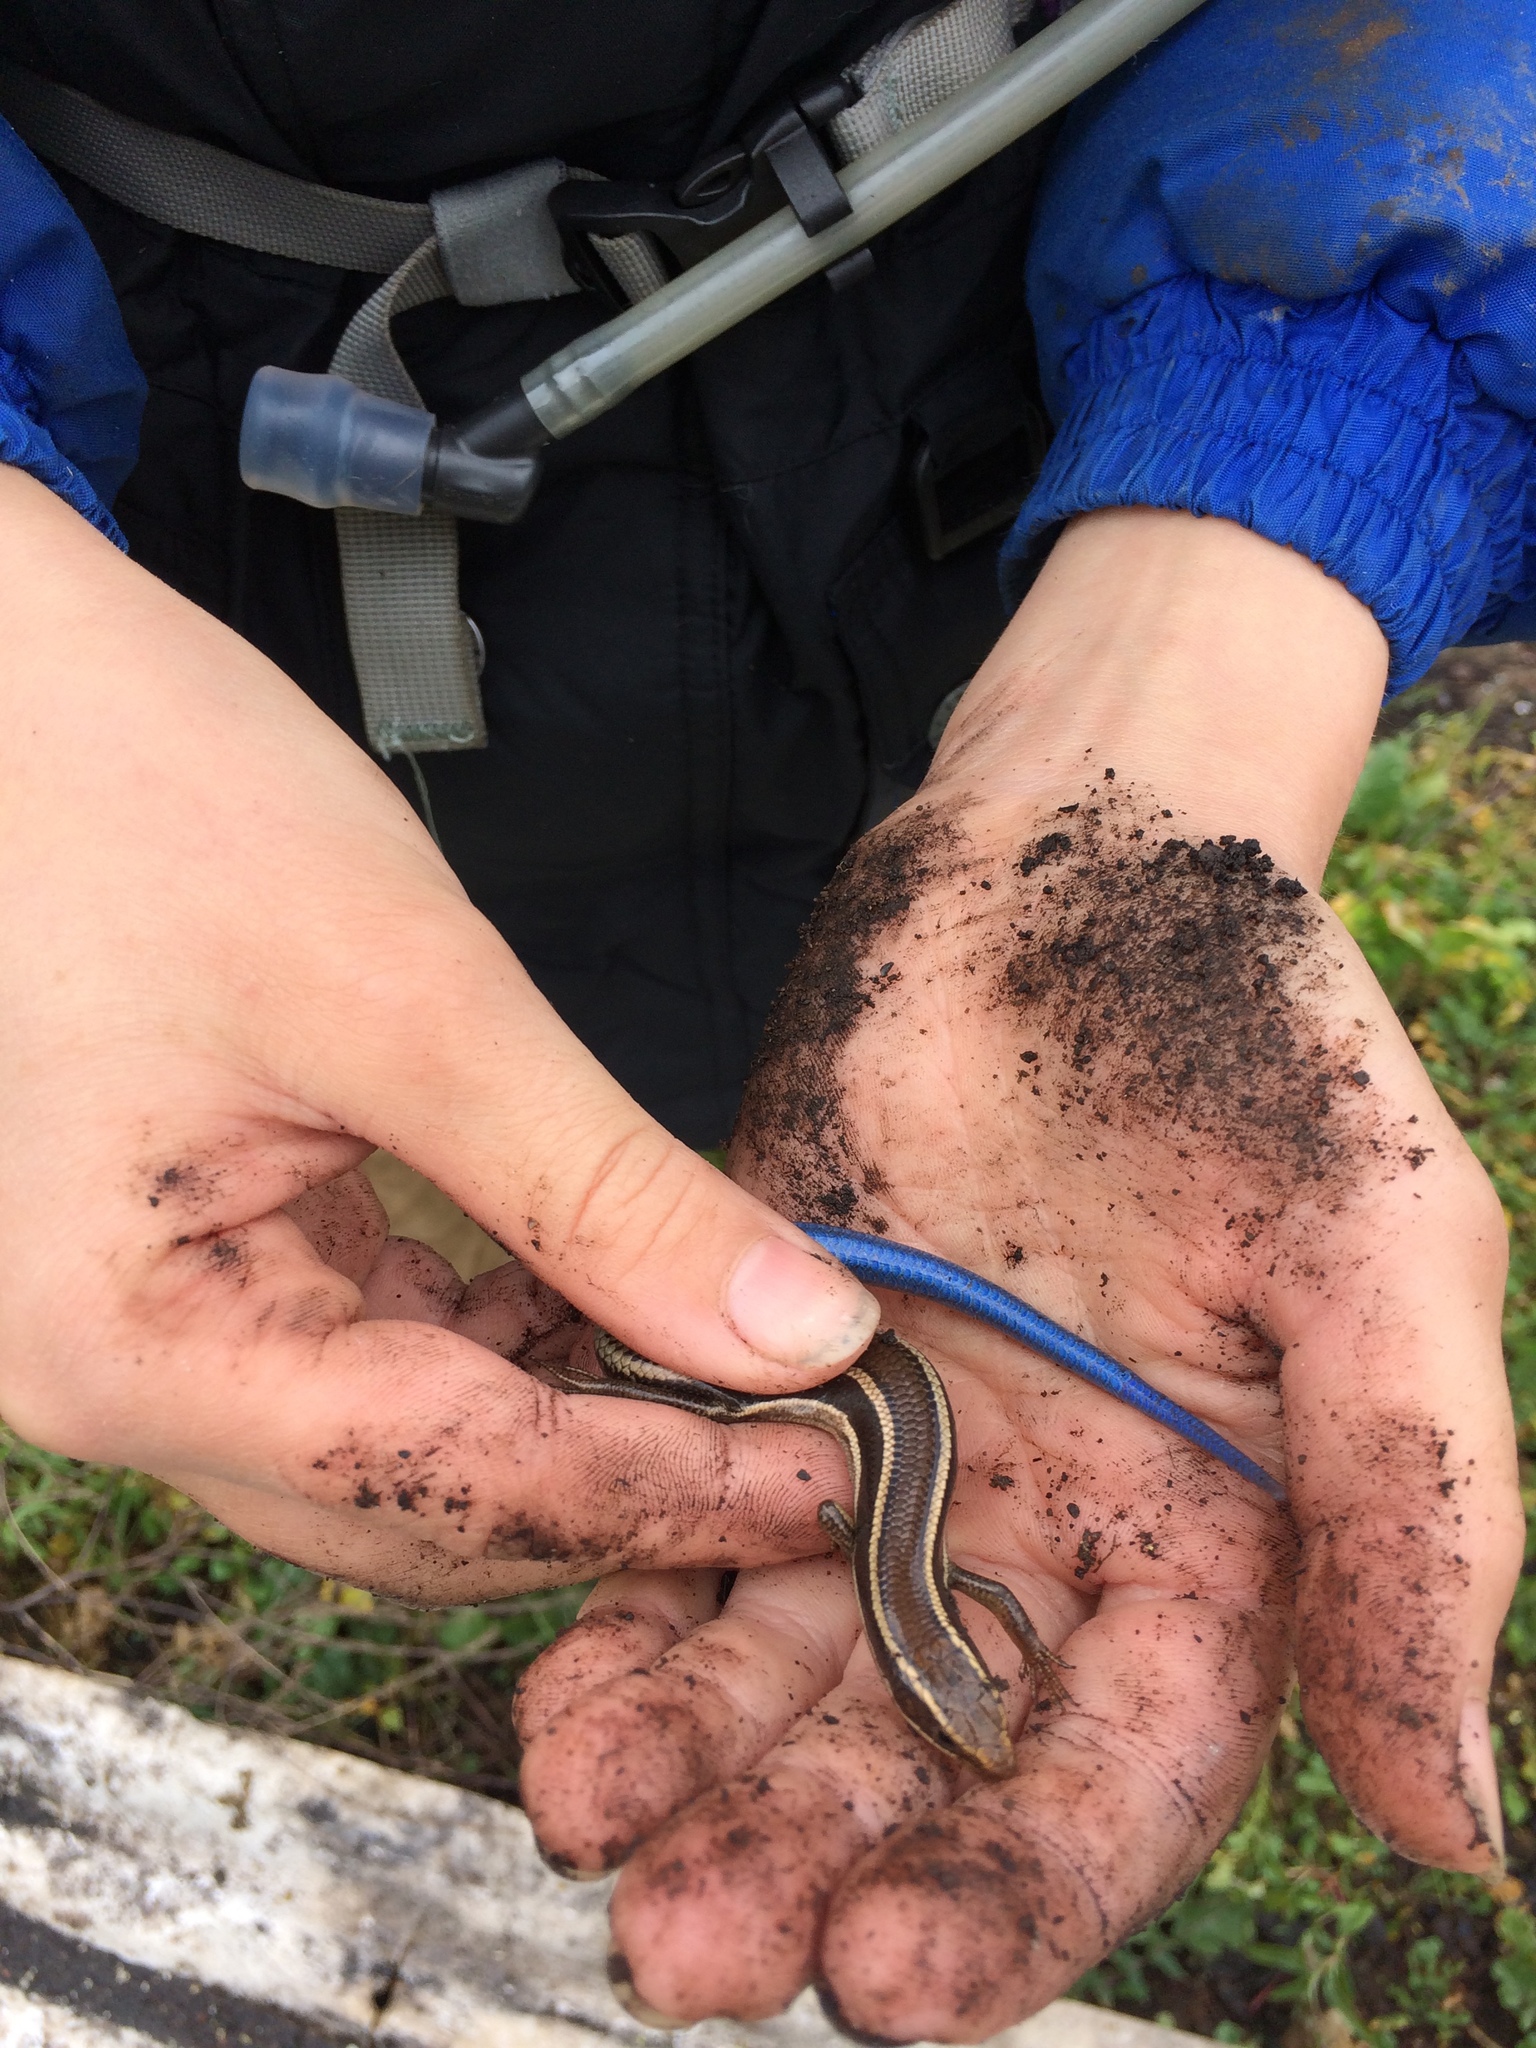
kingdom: Animalia
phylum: Chordata
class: Squamata
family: Scincidae
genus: Plestiodon
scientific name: Plestiodon skiltonianus
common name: Coronado island skink [interparietalis]
